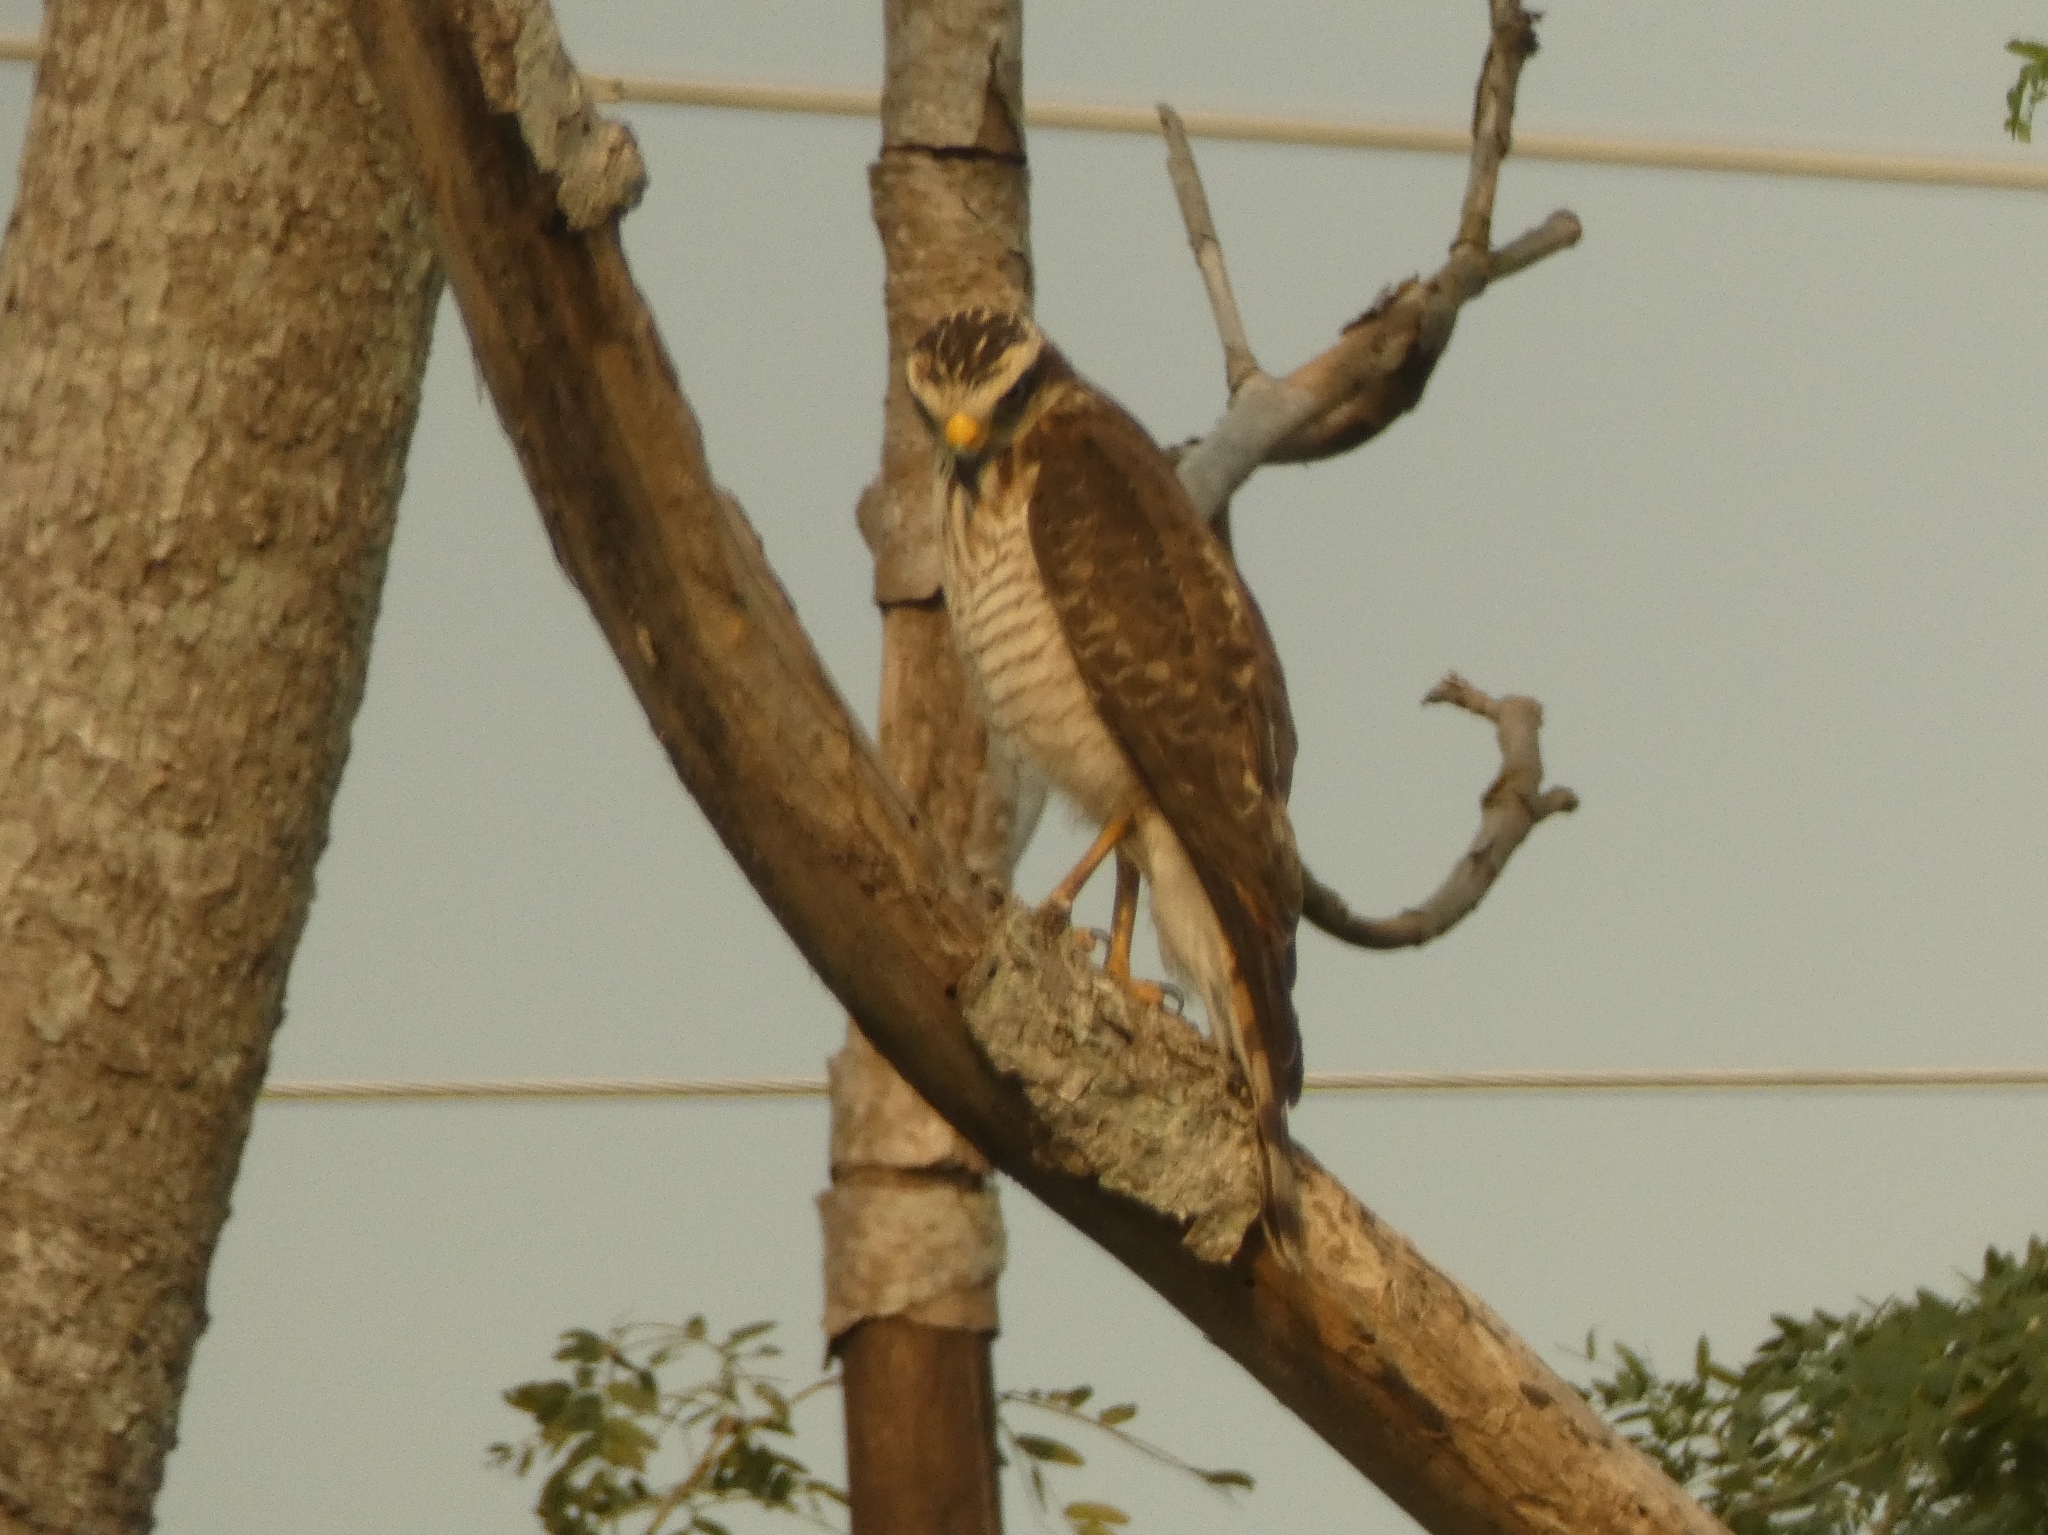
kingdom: Animalia
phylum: Chordata
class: Aves
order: Accipitriformes
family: Accipitridae
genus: Rupornis
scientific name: Rupornis magnirostris
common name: Roadside hawk
